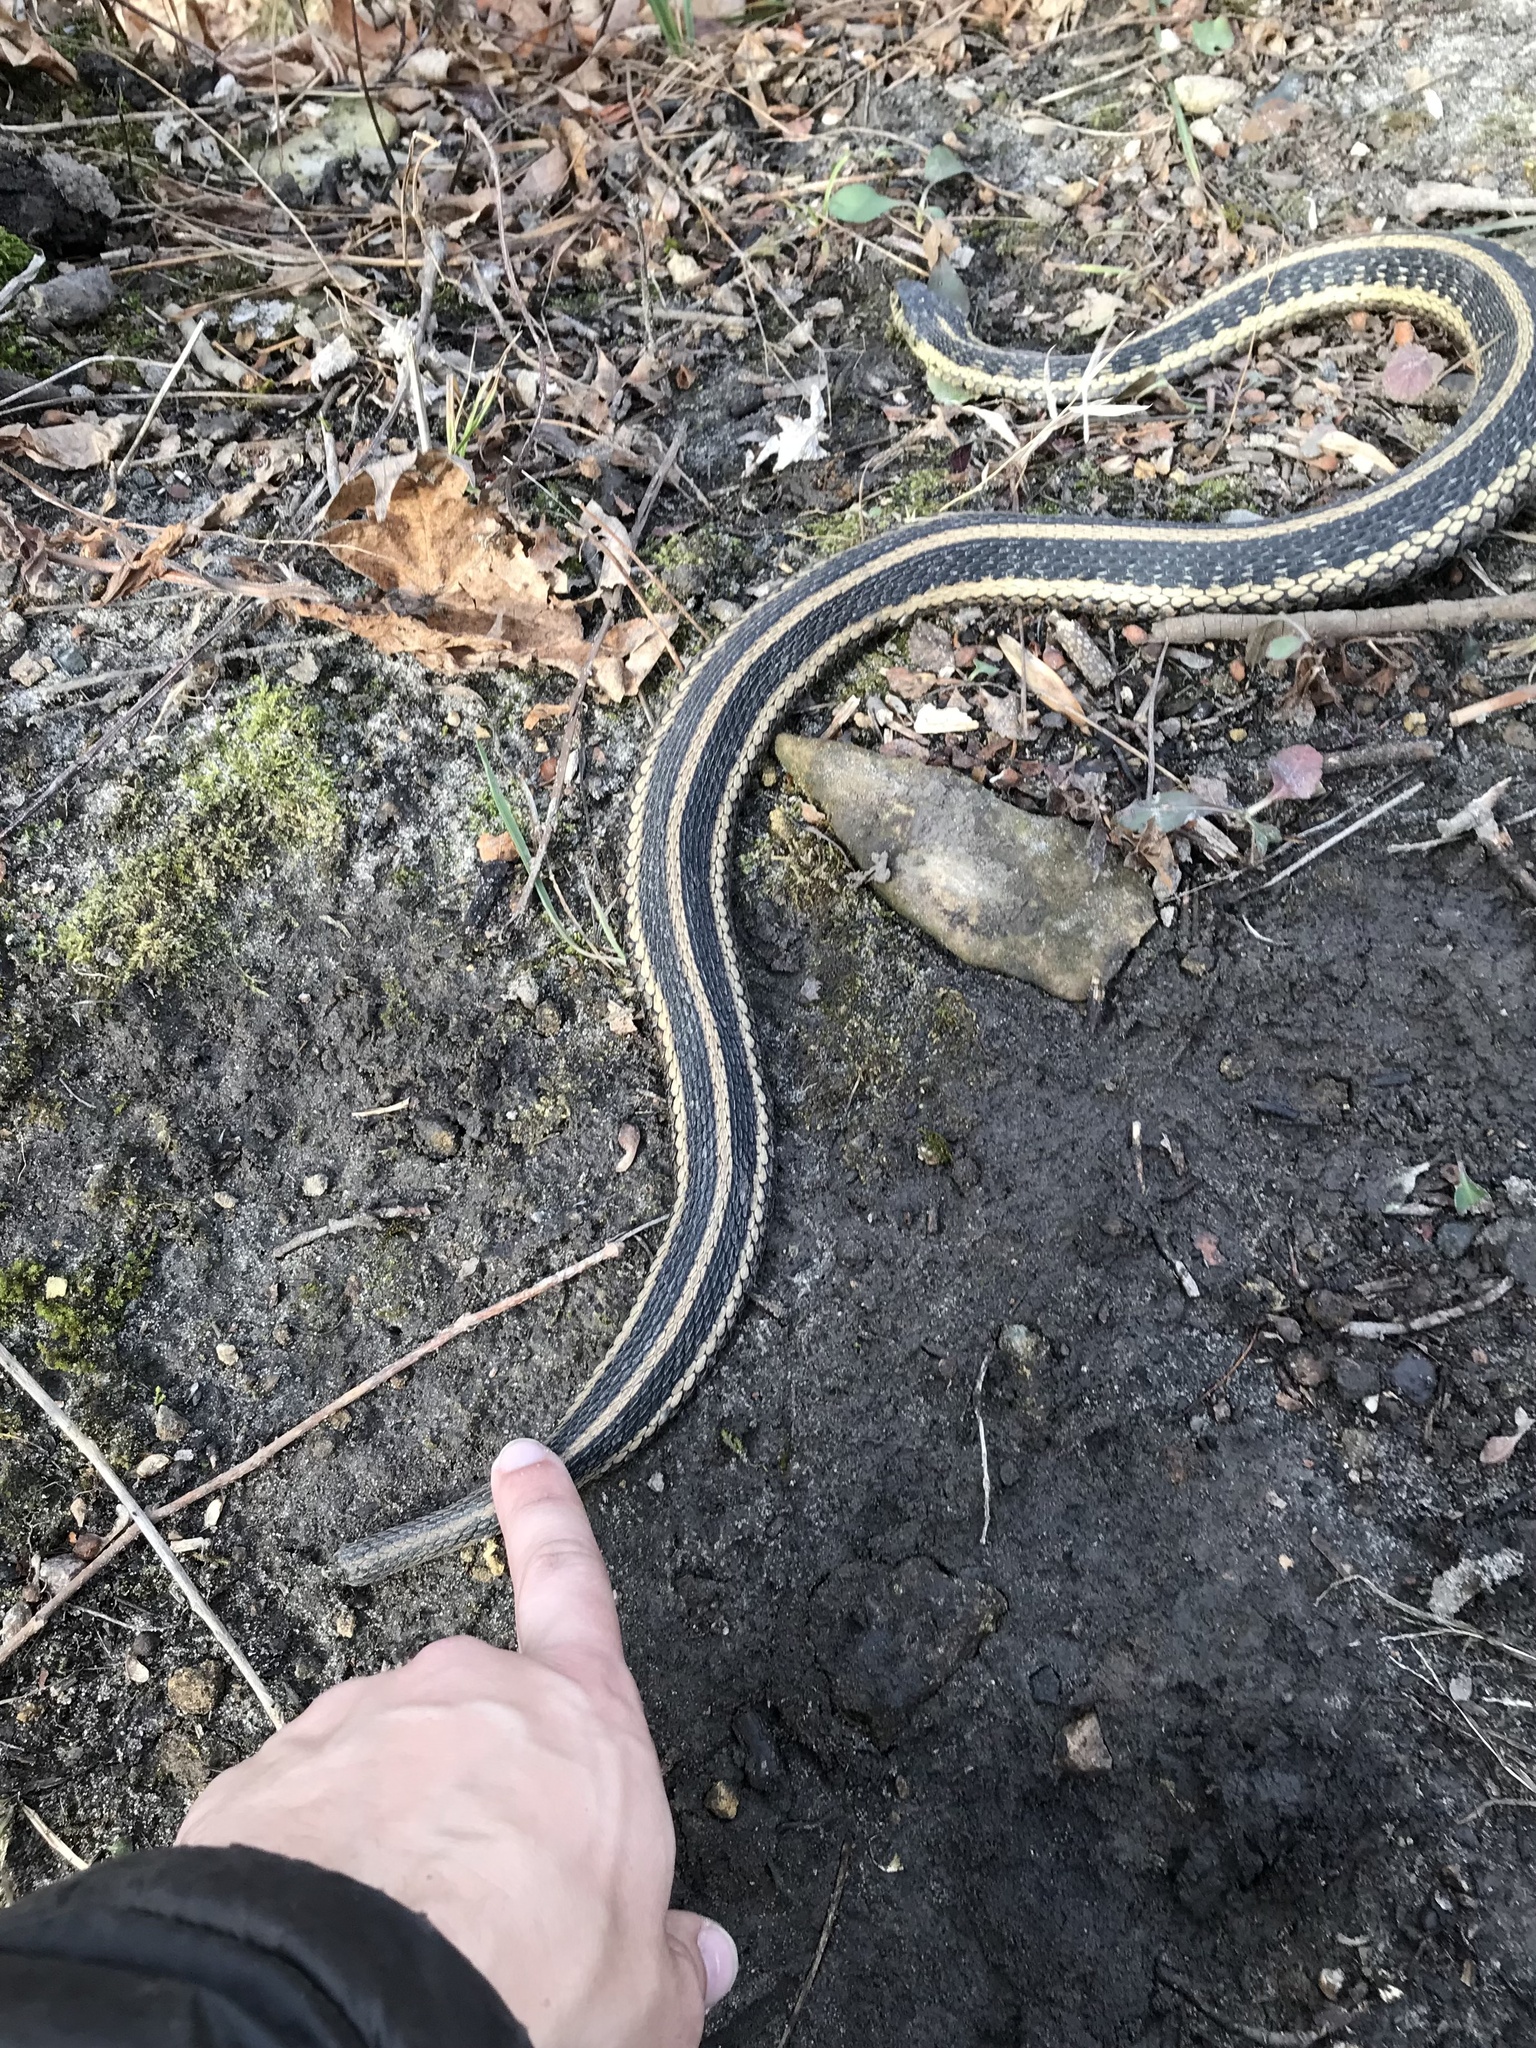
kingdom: Animalia
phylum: Chordata
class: Squamata
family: Colubridae
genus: Thamnophis
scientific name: Thamnophis sirtalis
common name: Common garter snake
